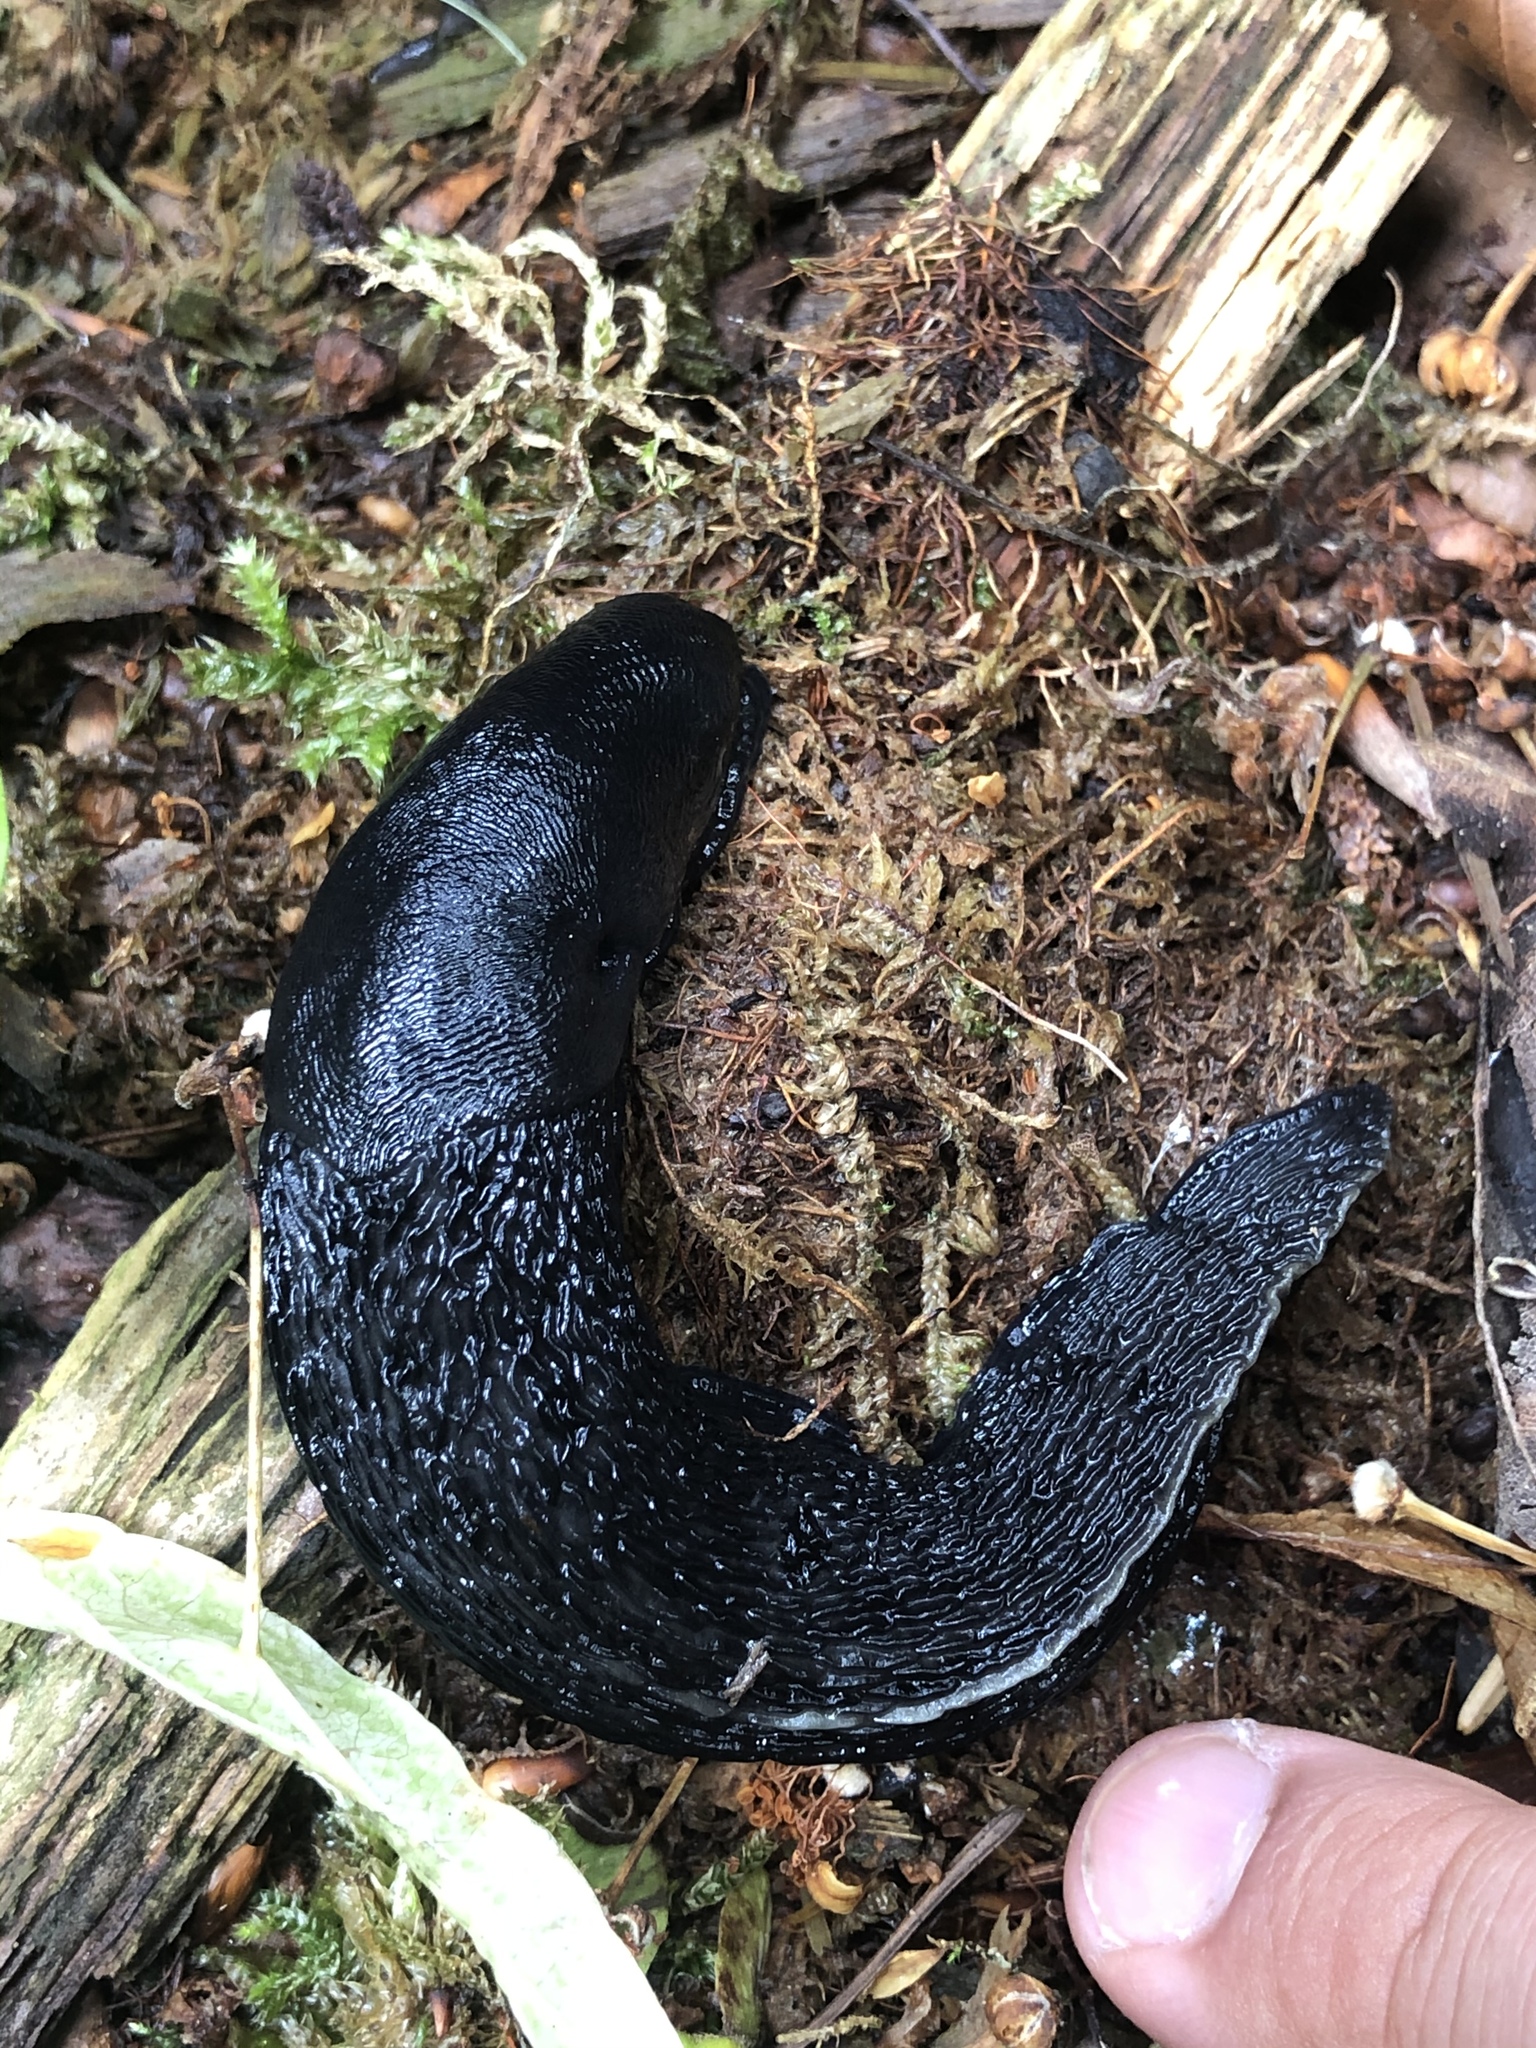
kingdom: Animalia
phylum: Mollusca
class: Gastropoda
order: Stylommatophora
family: Limacidae
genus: Limax
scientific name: Limax cinereoniger
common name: Ash-black slug
